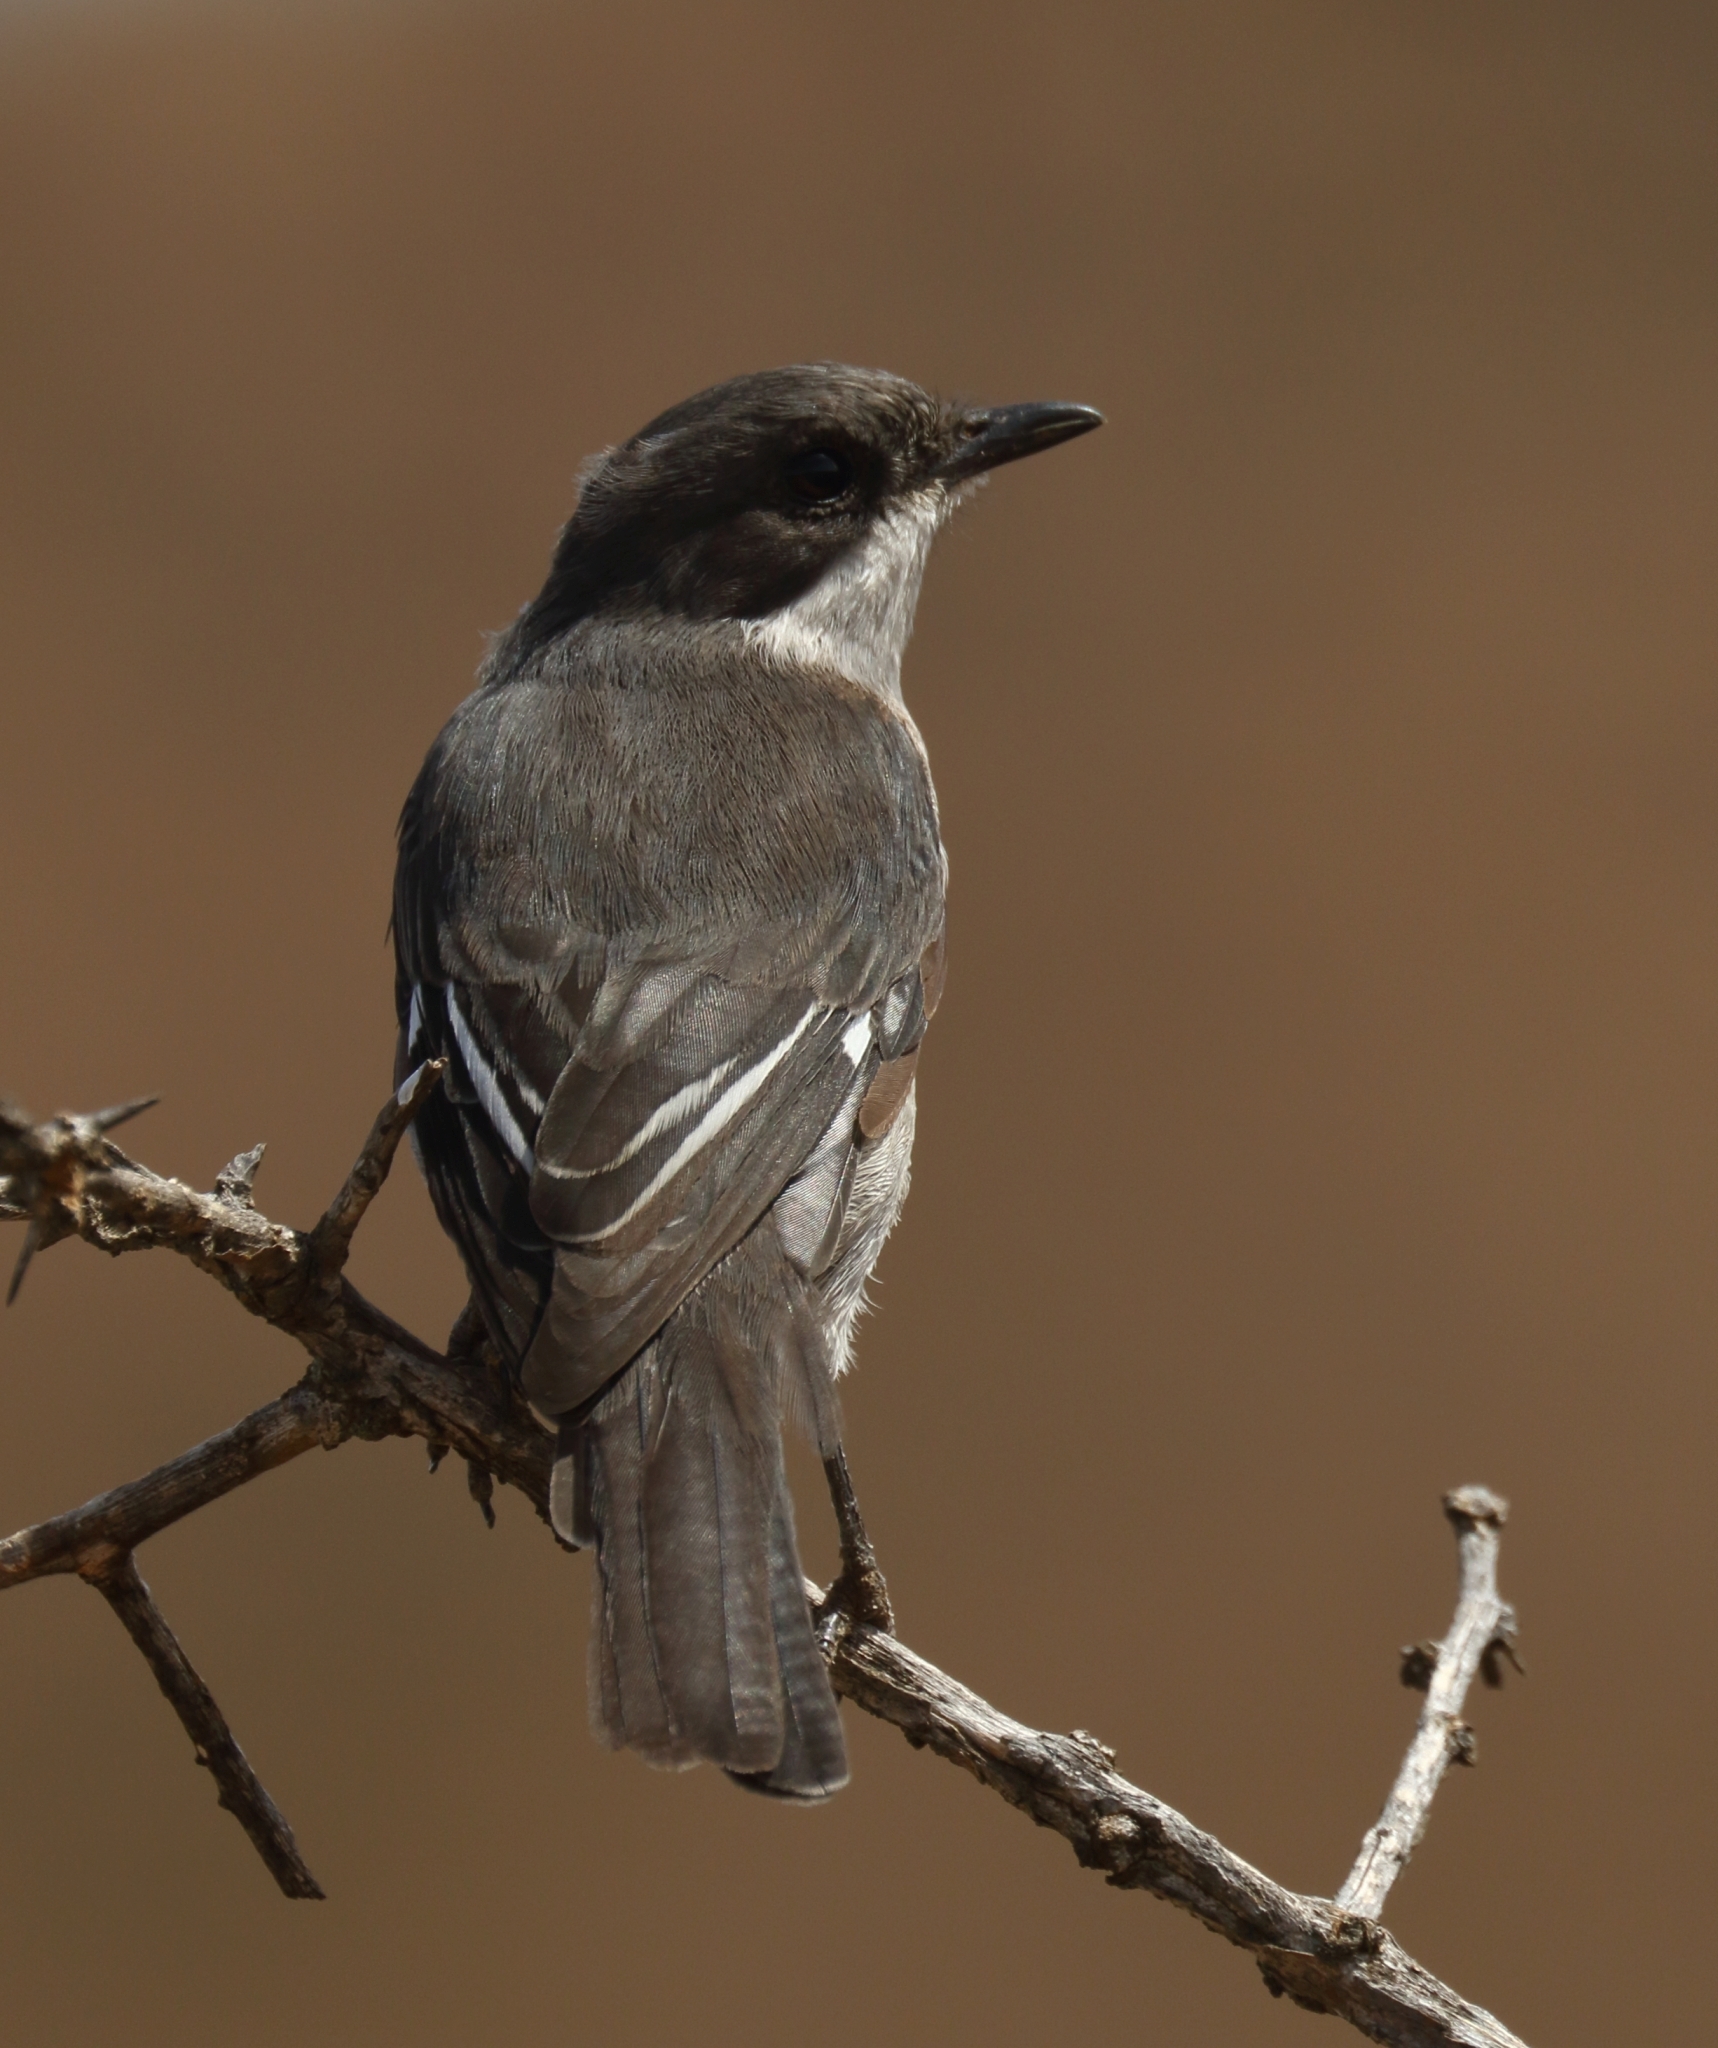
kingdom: Animalia
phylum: Chordata
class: Aves
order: Passeriformes
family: Muscicapidae
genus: Sigelus
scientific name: Sigelus silens
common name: Fiscal flycatcher
